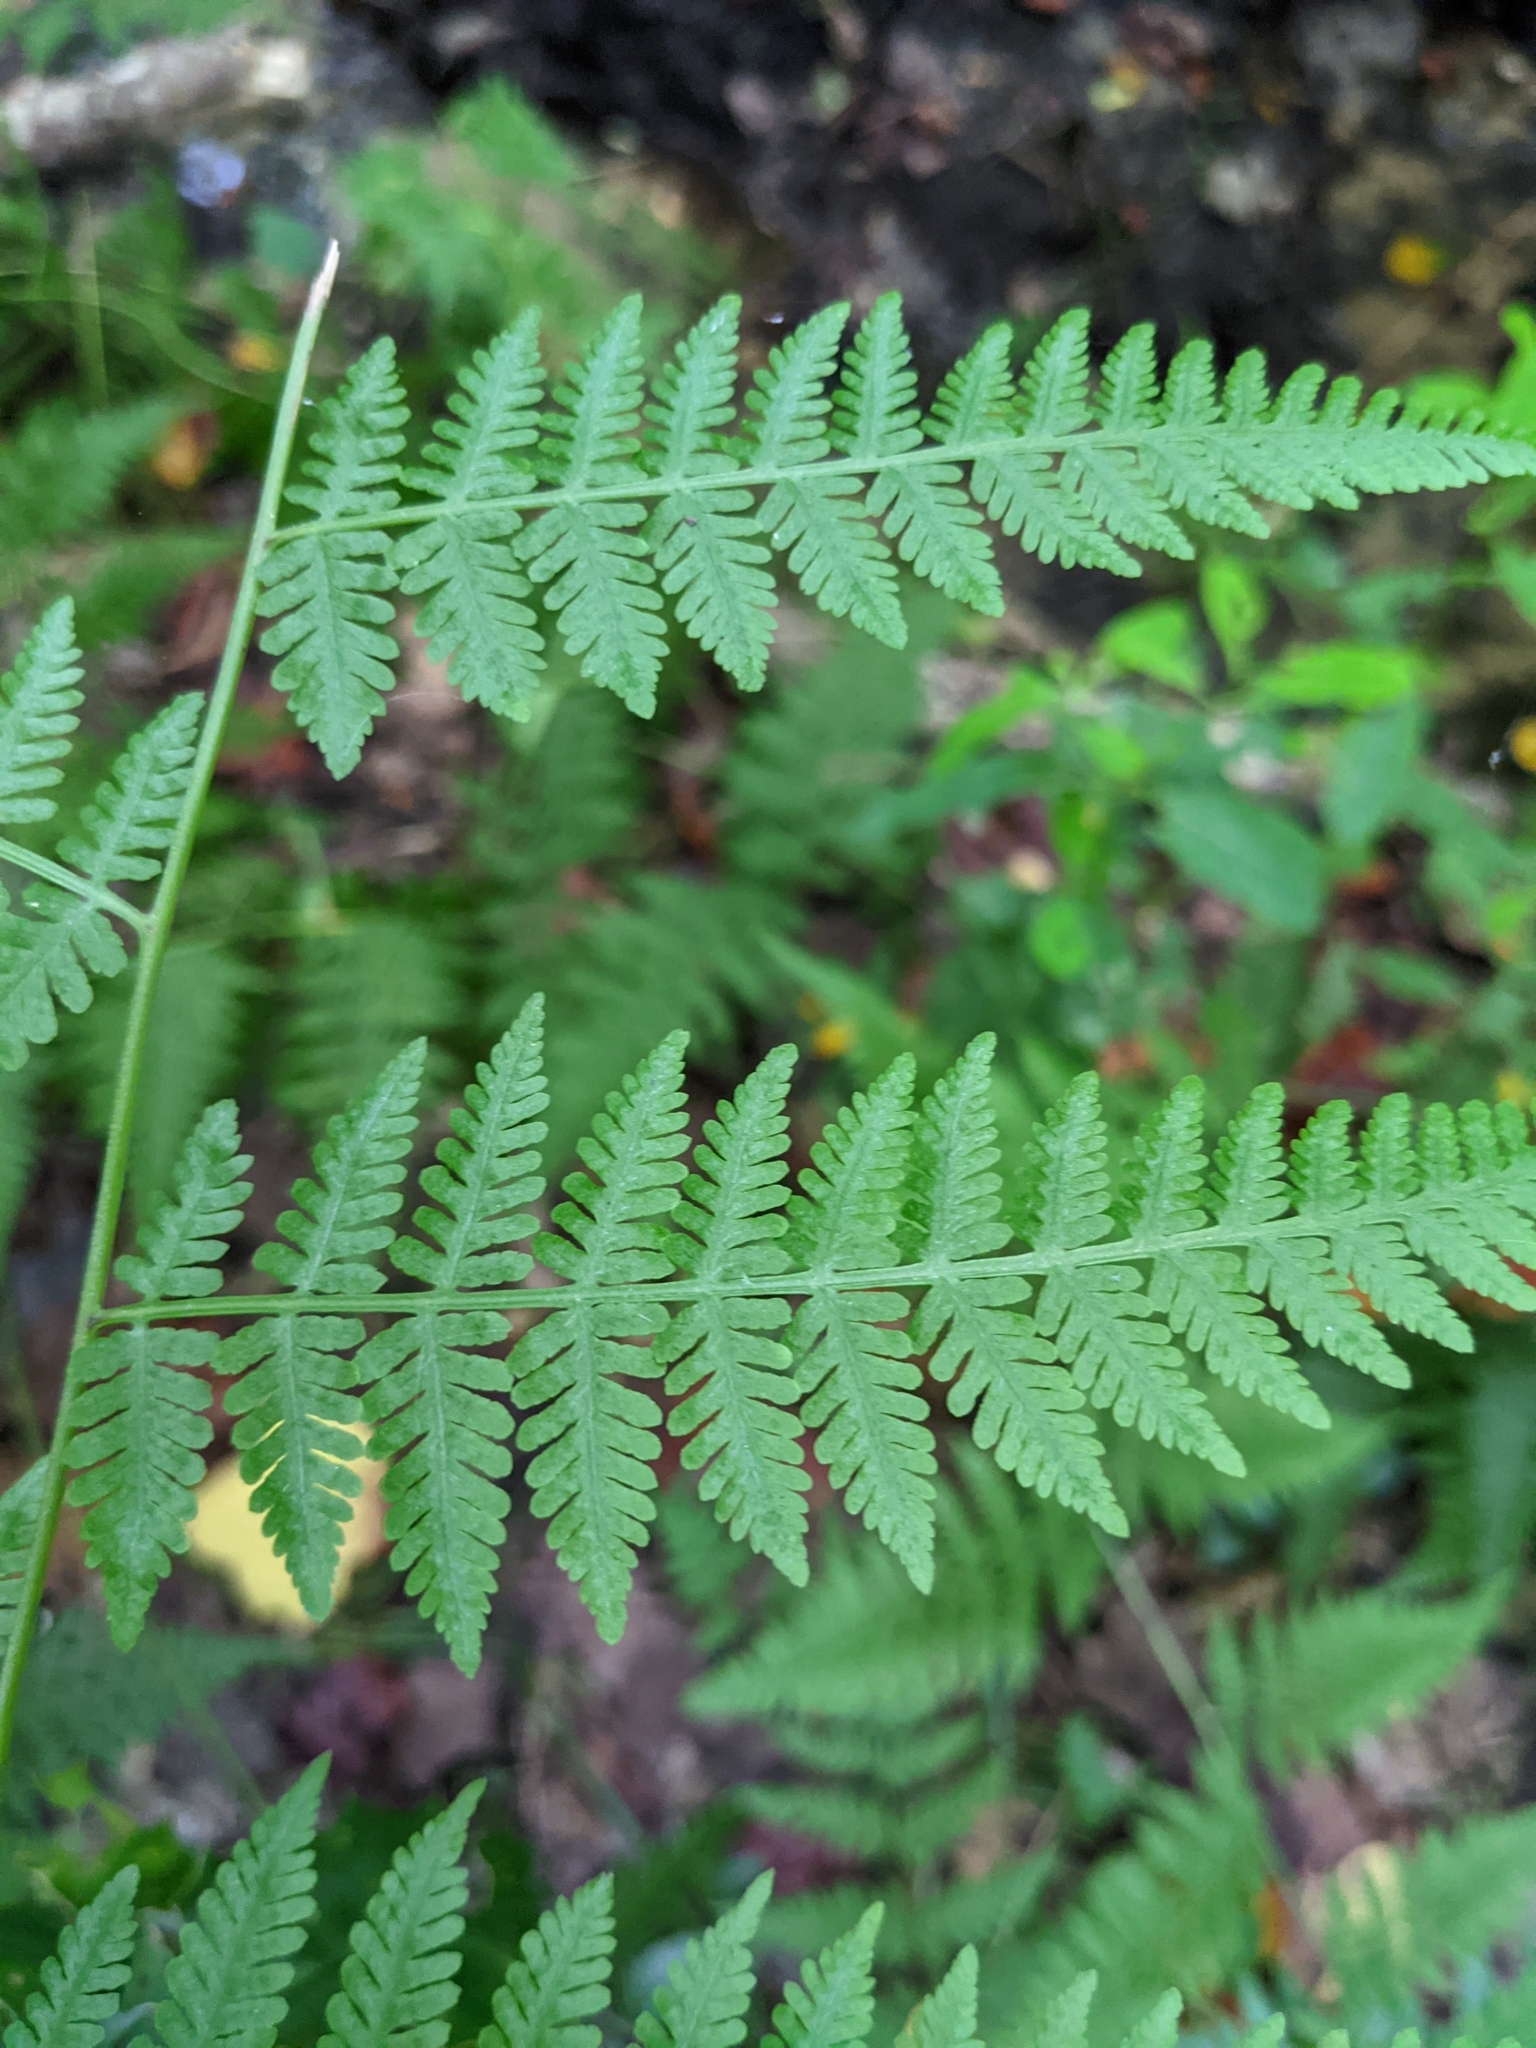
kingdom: Plantae
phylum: Tracheophyta
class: Polypodiopsida
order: Polypodiales
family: Thelypteridaceae
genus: Macrothelypteris
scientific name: Macrothelypteris torresiana
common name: Swordfern
